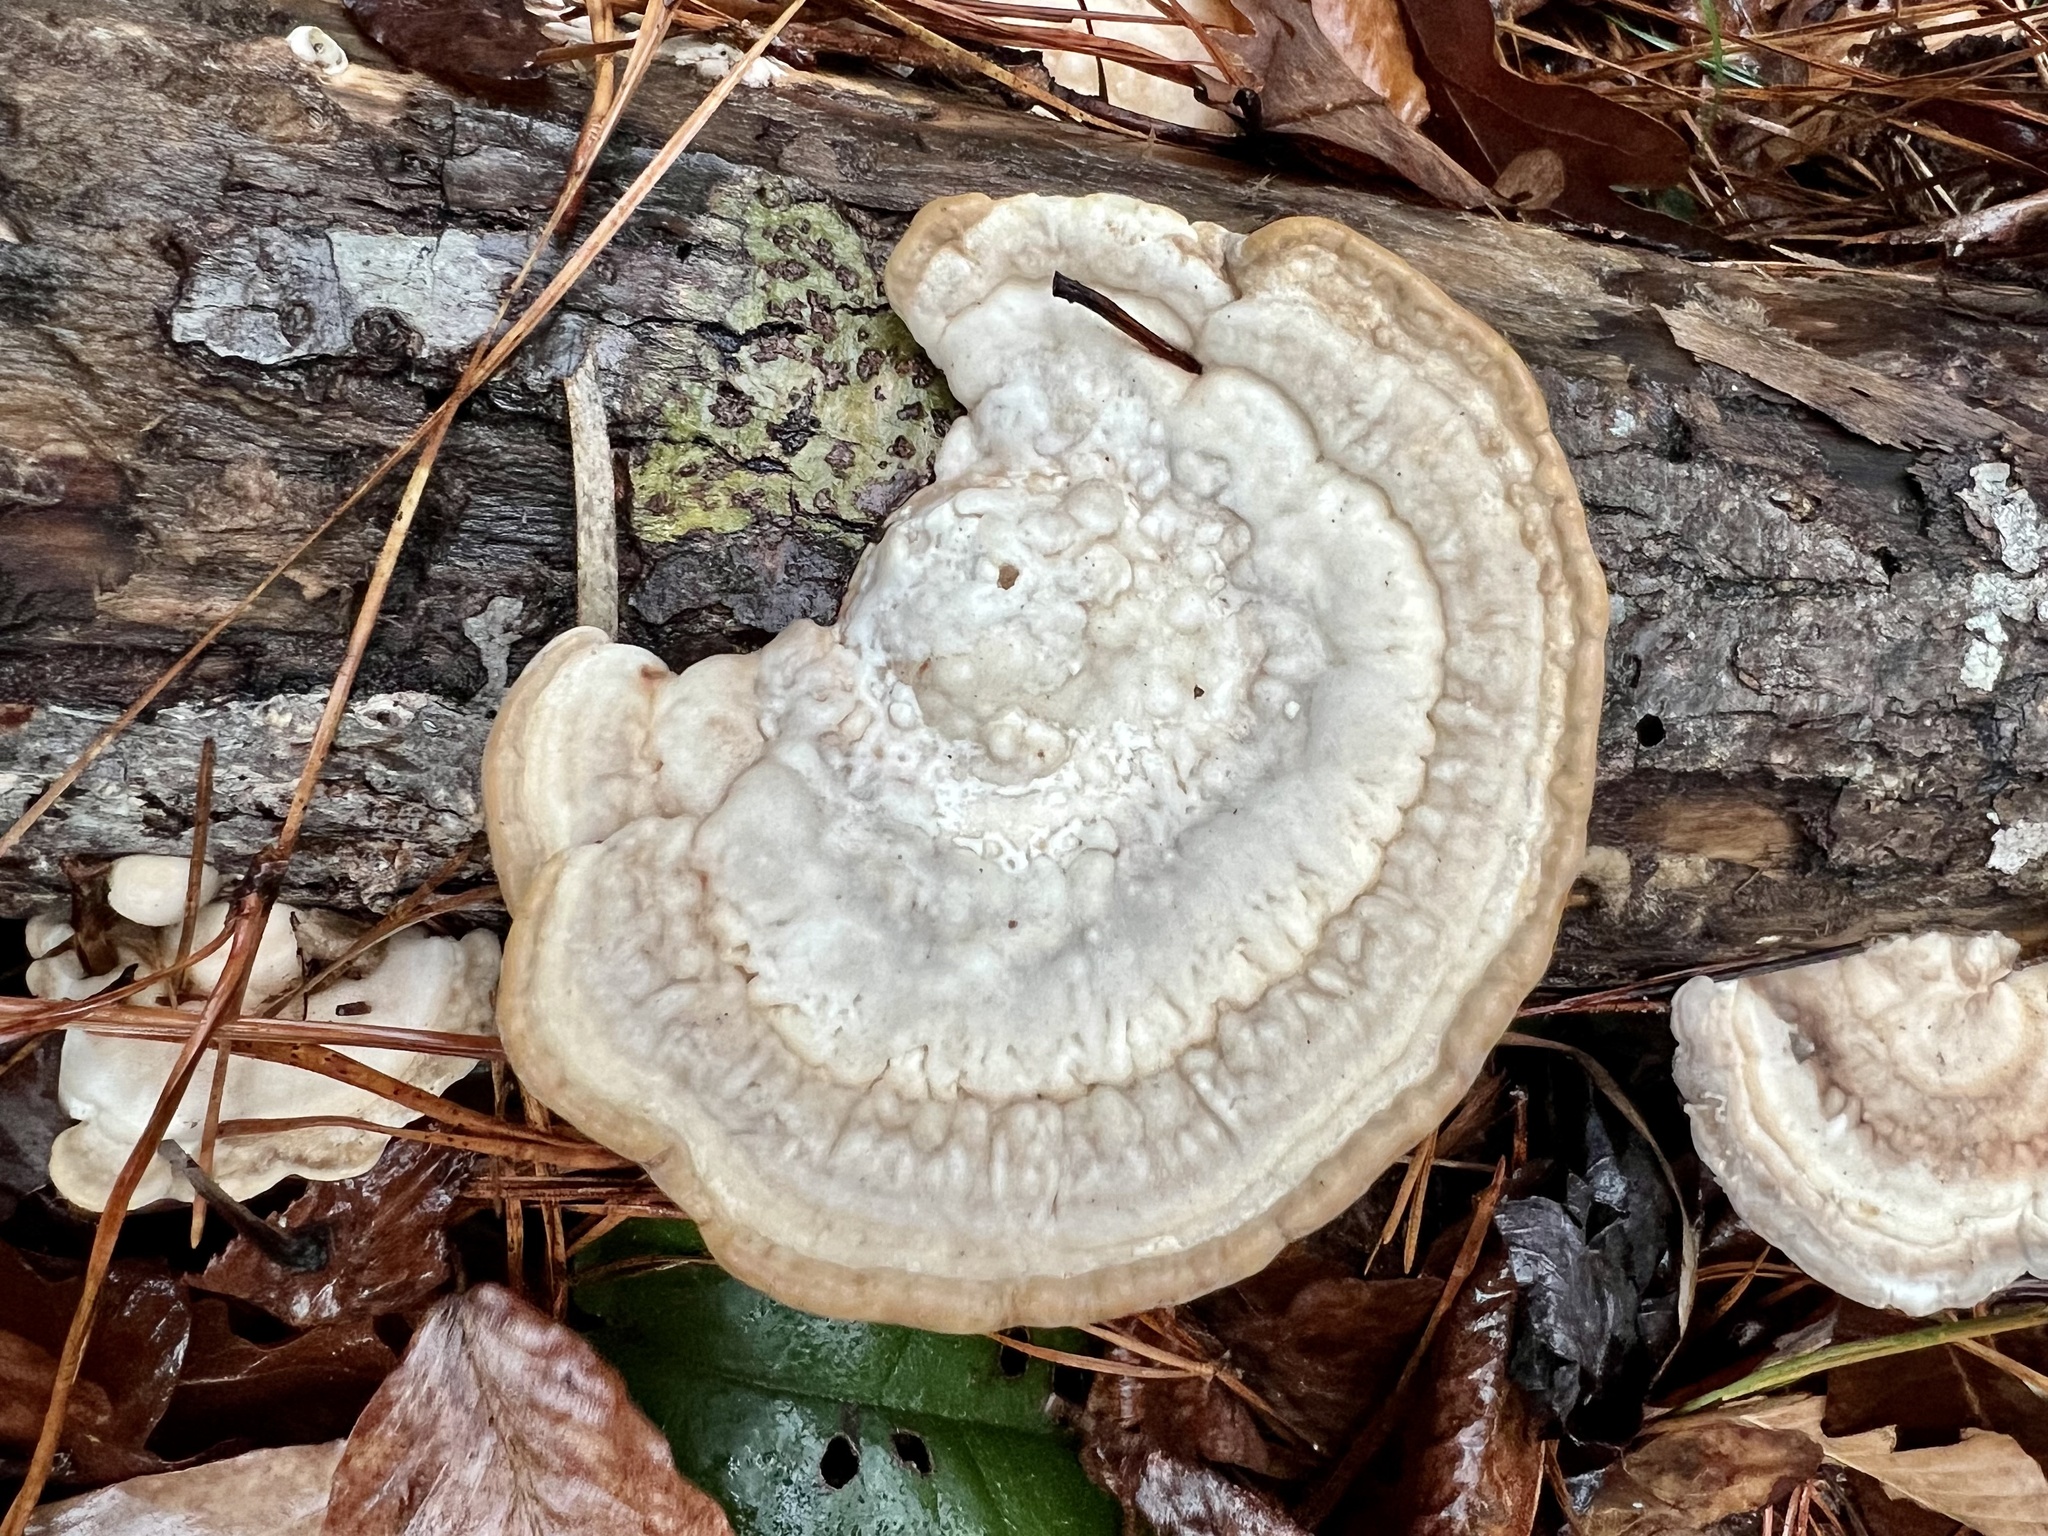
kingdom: Fungi
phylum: Basidiomycota
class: Agaricomycetes
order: Polyporales
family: Polyporaceae
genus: Trametes
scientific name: Trametes lactinea
